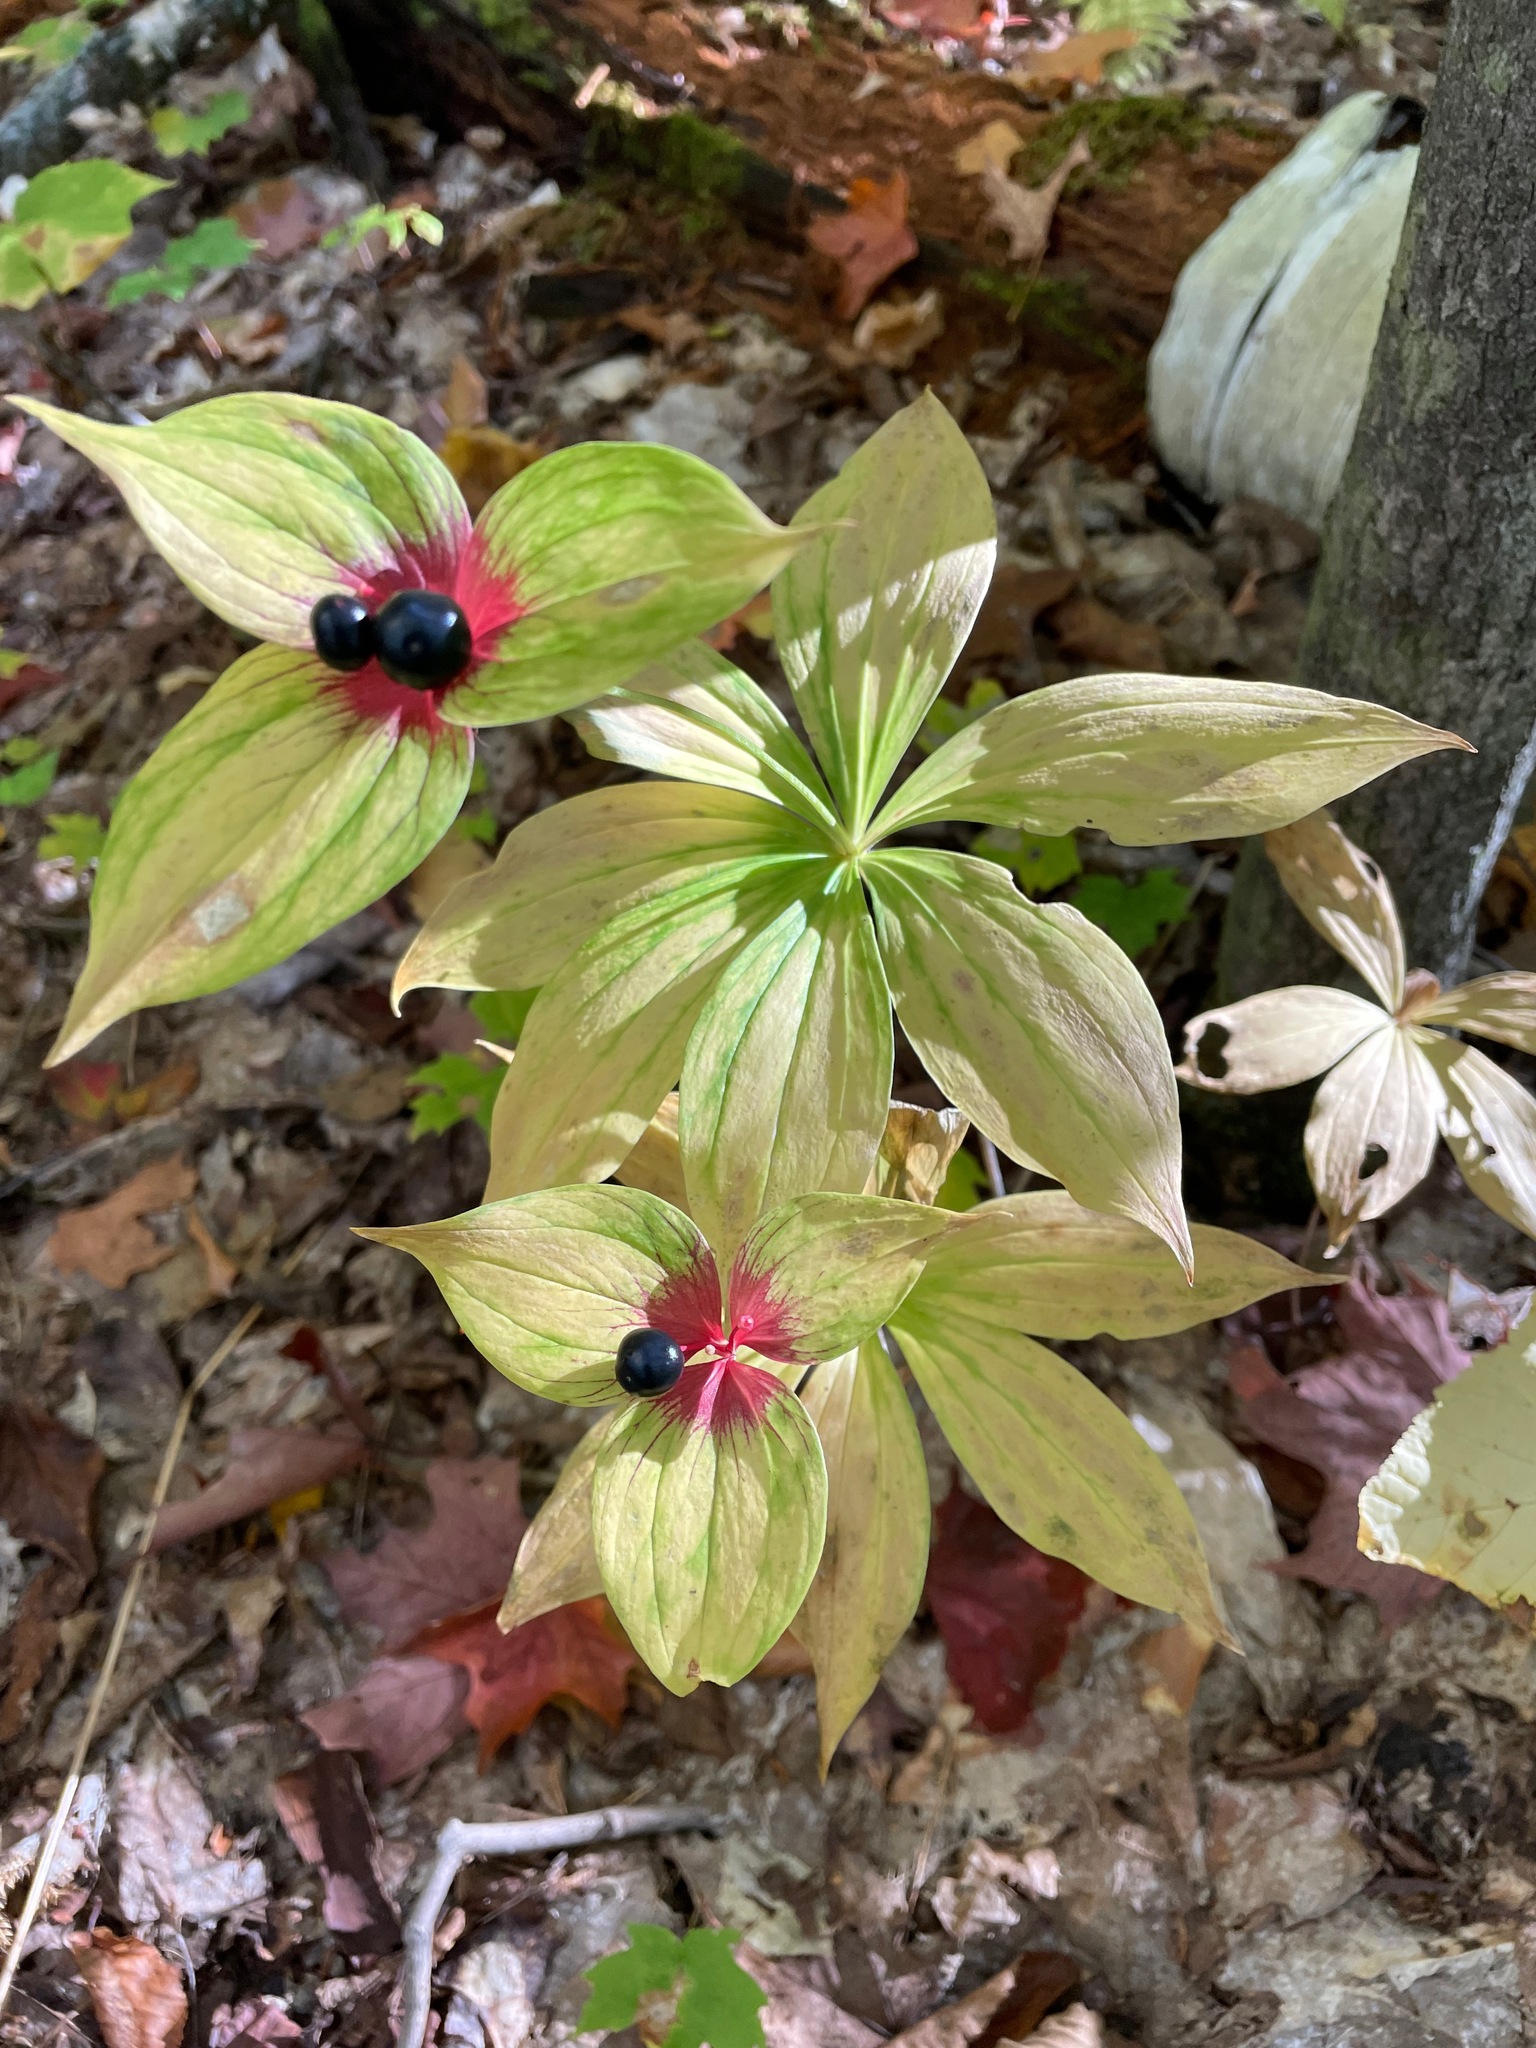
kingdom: Plantae
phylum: Tracheophyta
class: Liliopsida
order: Liliales
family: Liliaceae
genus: Medeola
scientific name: Medeola virginiana
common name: Indian cucumber-root
